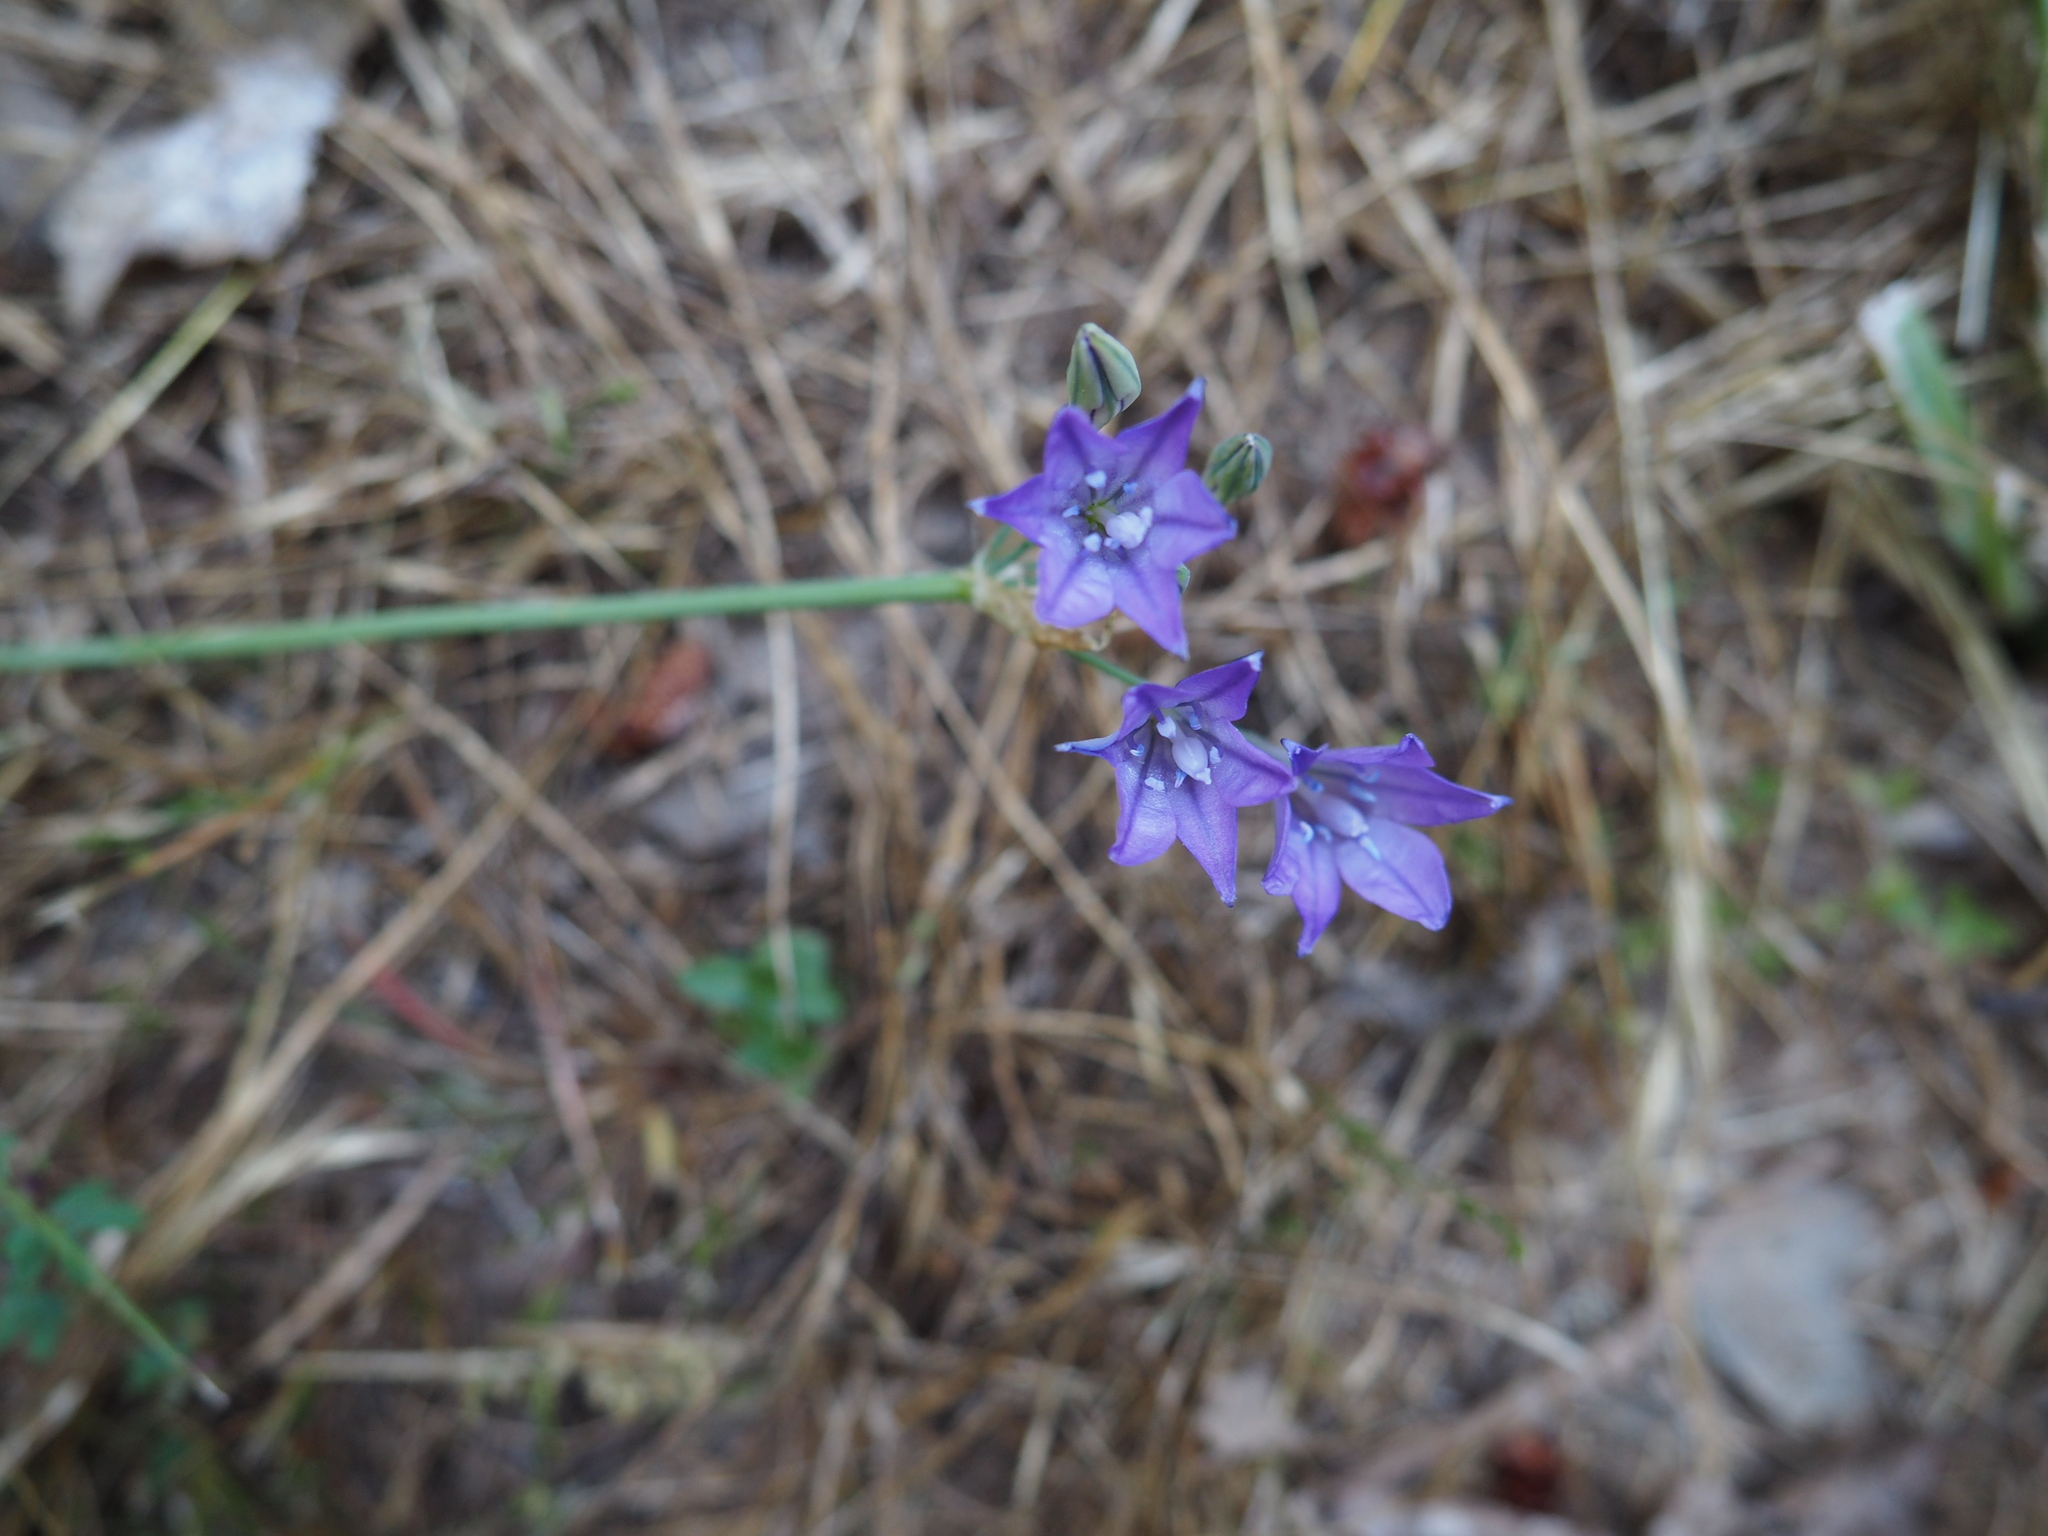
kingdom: Plantae
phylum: Tracheophyta
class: Liliopsida
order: Asparagales
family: Asparagaceae
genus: Triteleia
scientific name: Triteleia laxa
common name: Triplet-lily
